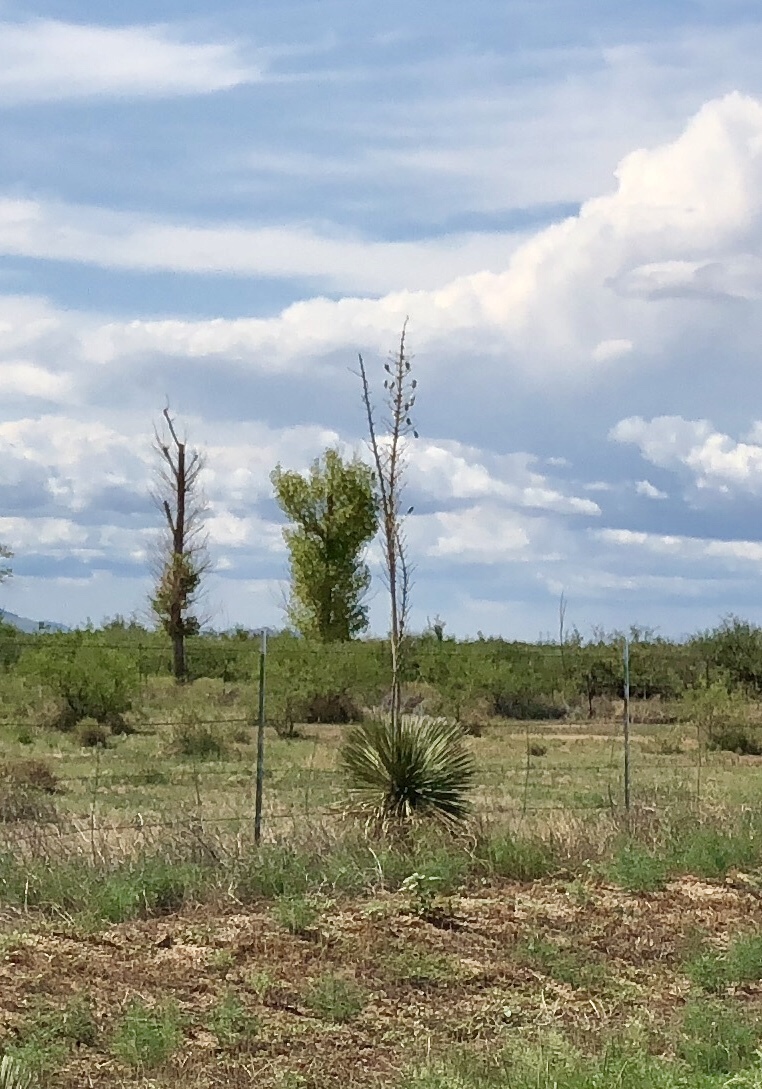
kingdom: Plantae
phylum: Tracheophyta
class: Liliopsida
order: Asparagales
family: Asparagaceae
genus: Yucca
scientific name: Yucca elata
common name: Palmella
